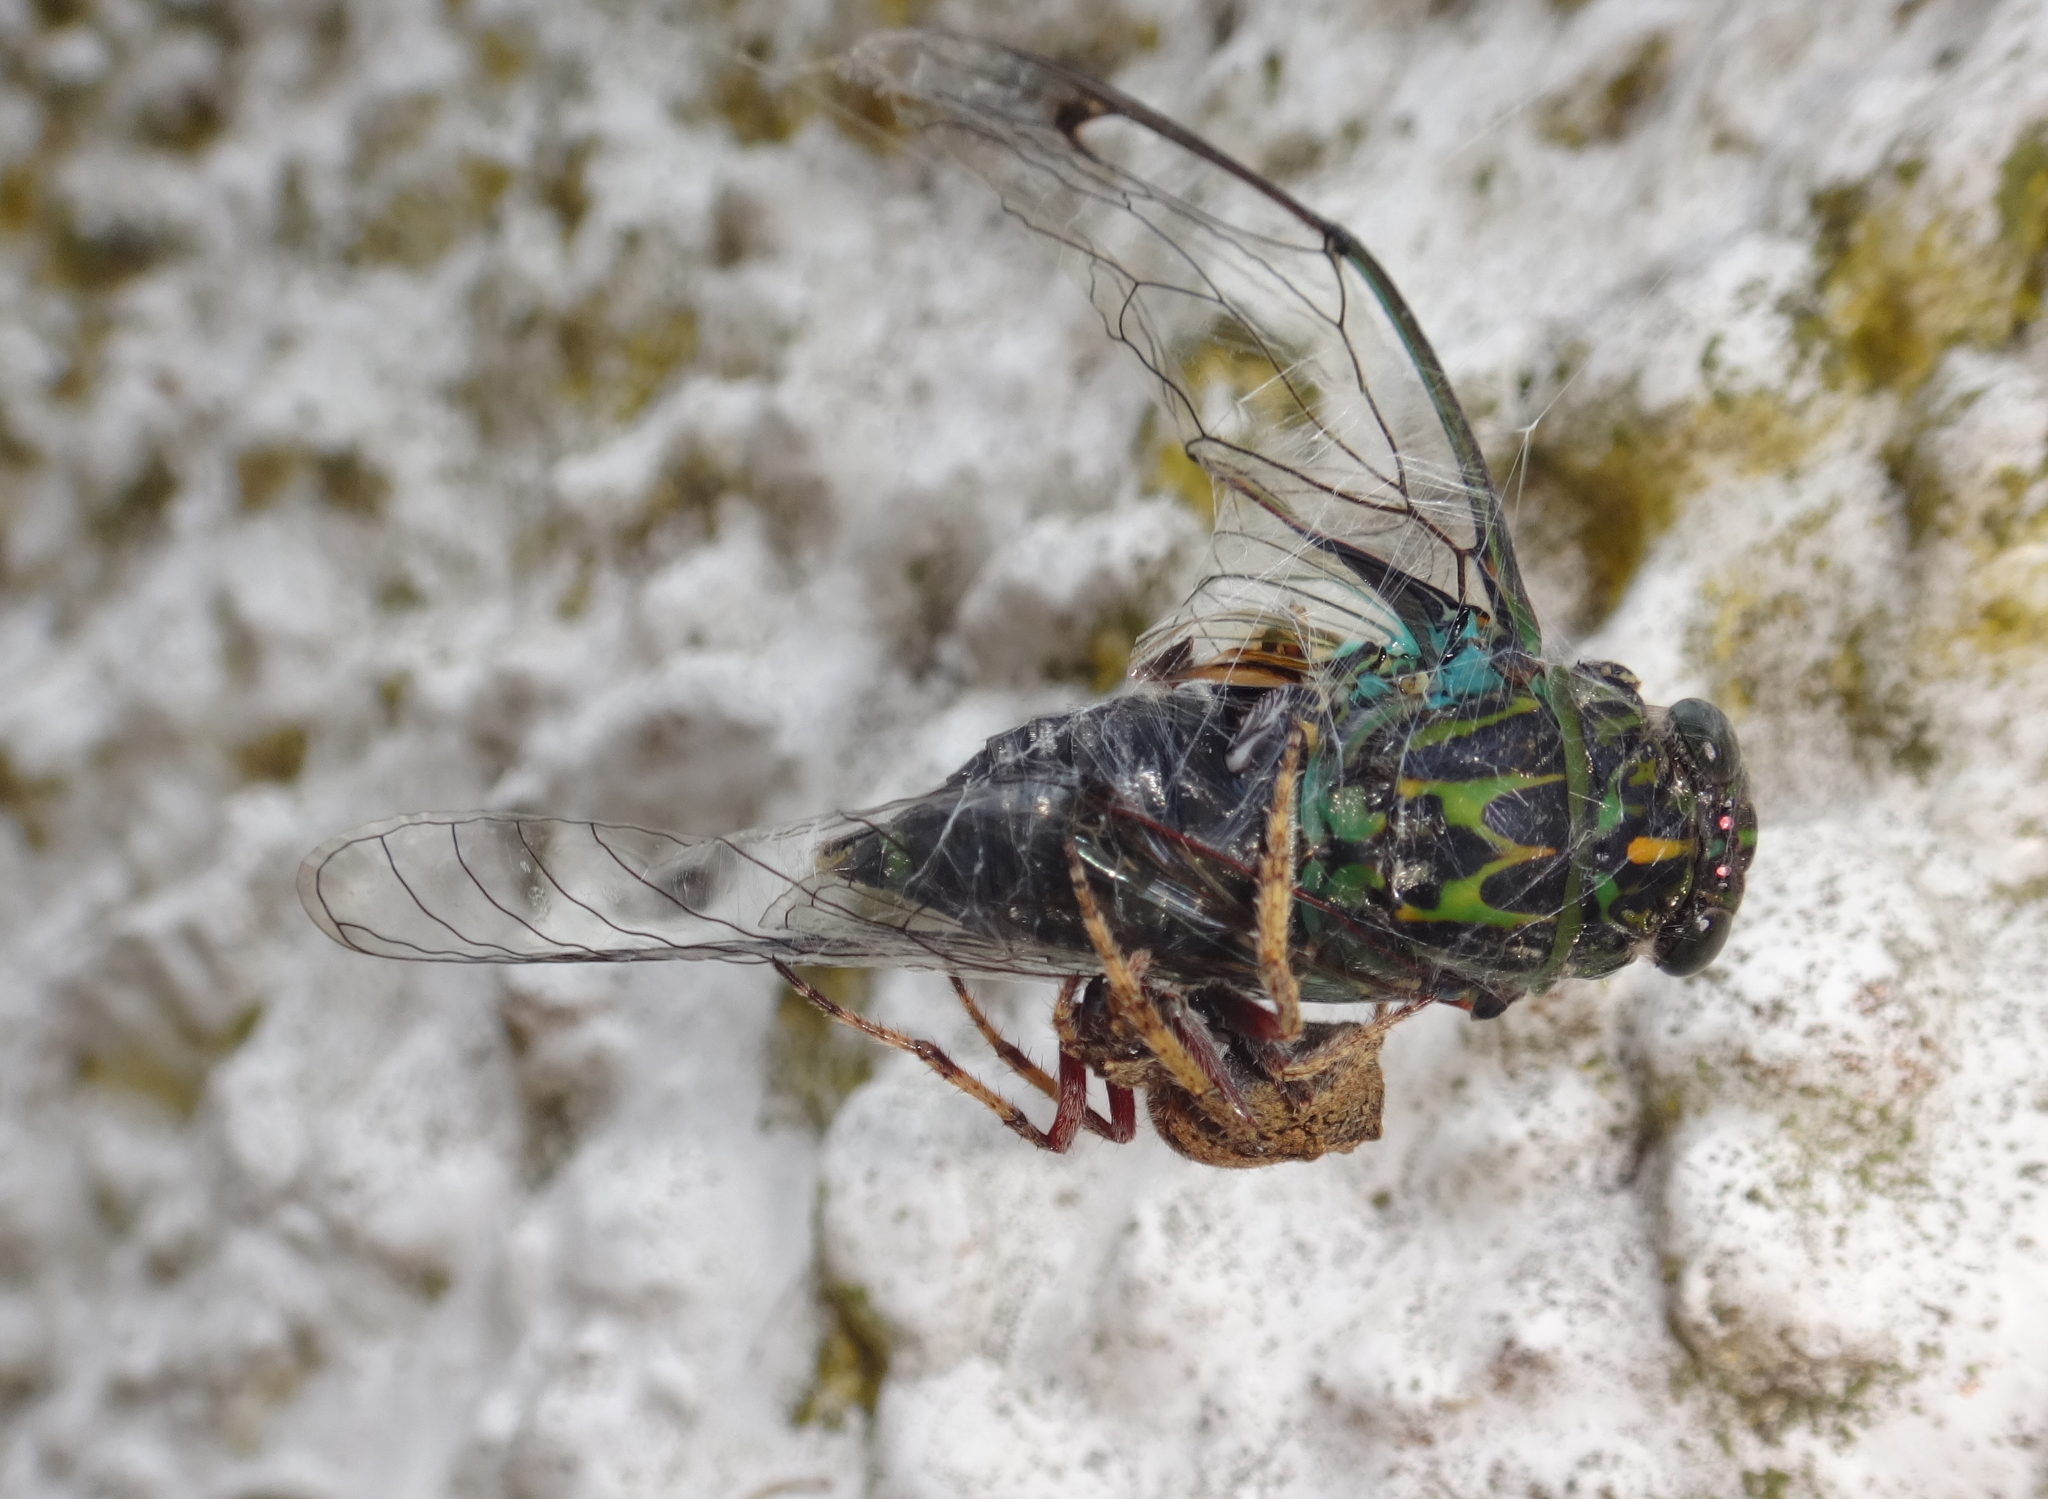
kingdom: Animalia
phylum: Arthropoda
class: Arachnida
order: Araneae
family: Araneidae
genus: Eriophora
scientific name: Eriophora pustulosa
